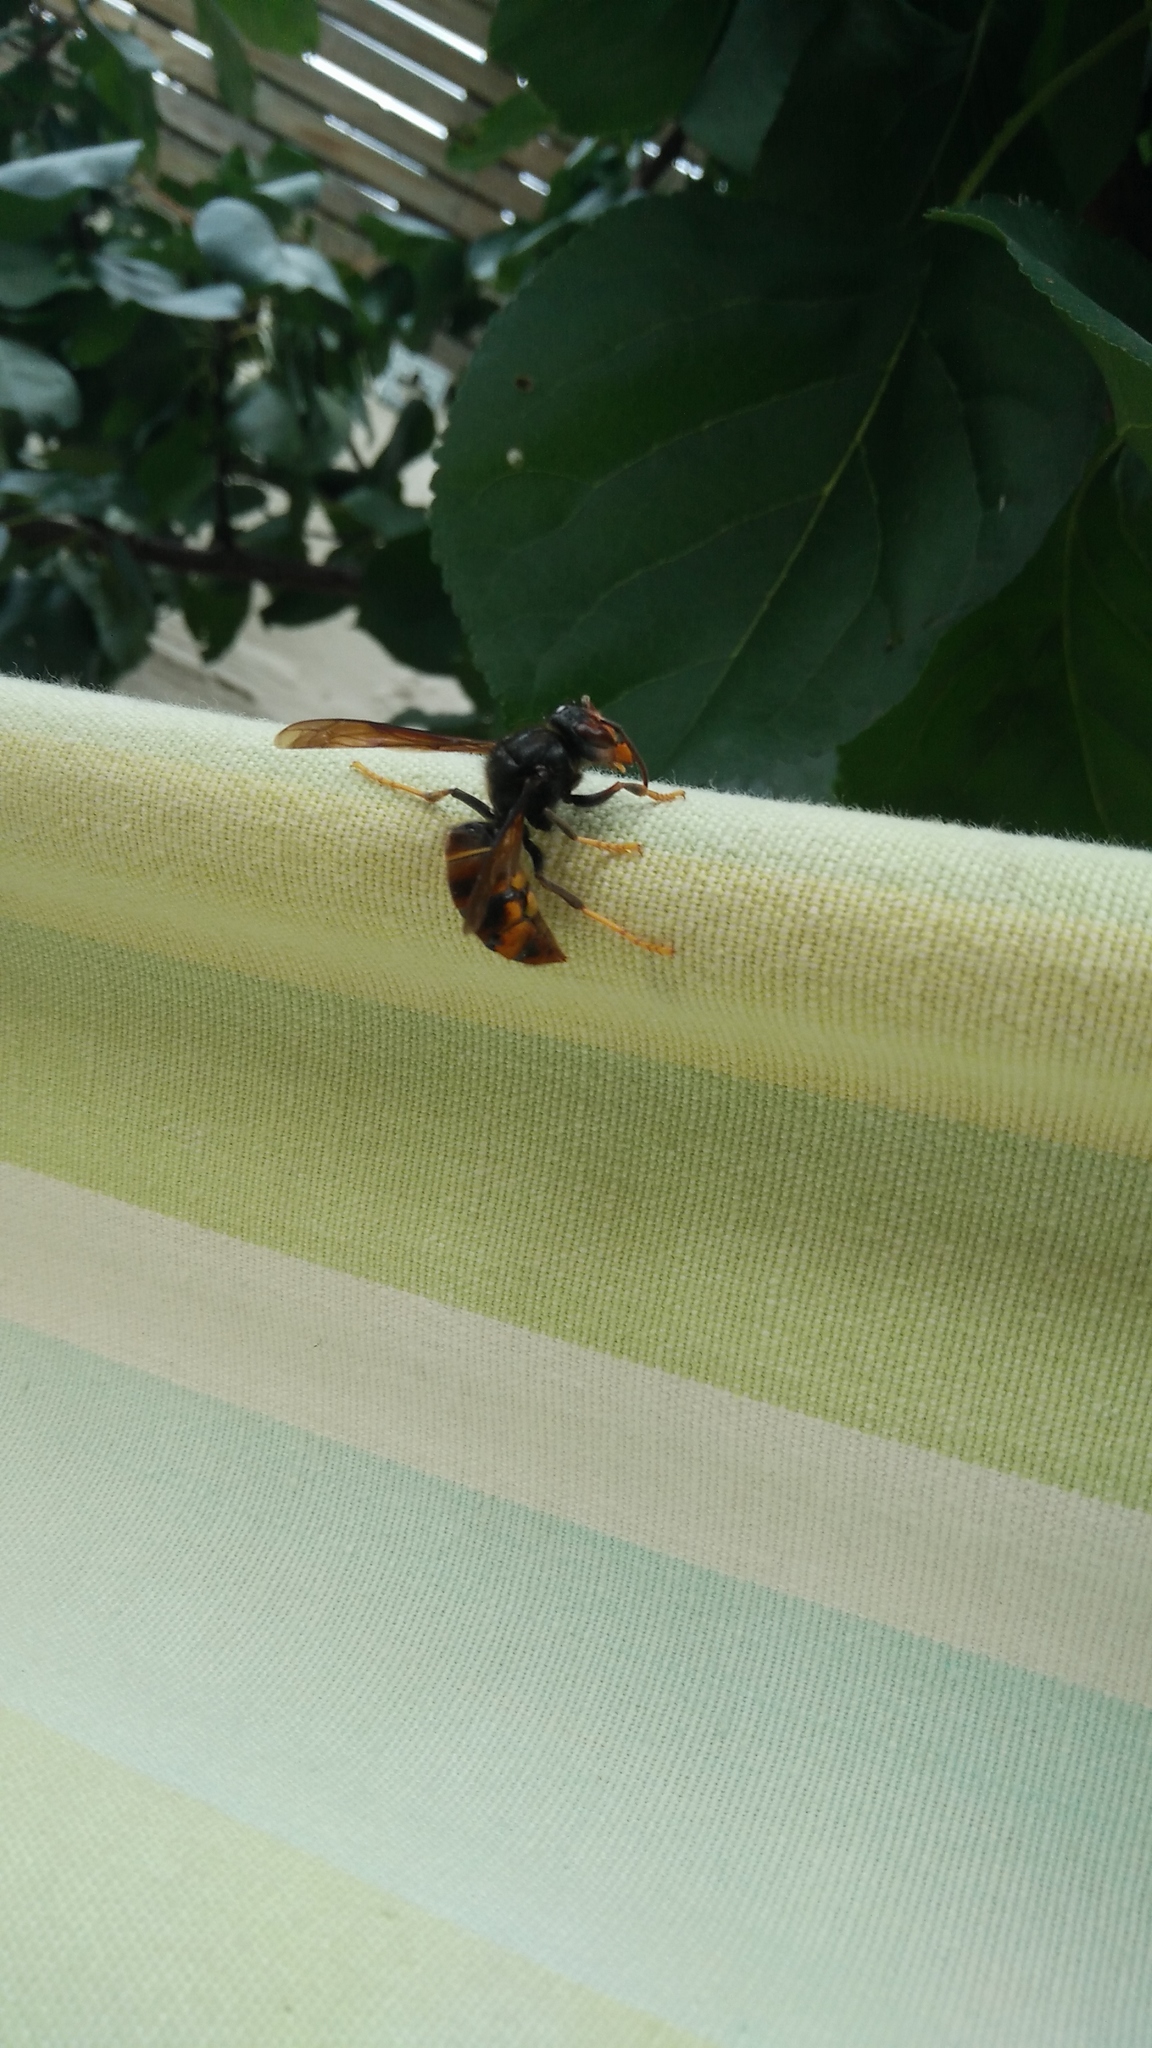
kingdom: Animalia
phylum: Arthropoda
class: Insecta
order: Hymenoptera
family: Vespidae
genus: Vespa
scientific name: Vespa velutina
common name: Asian hornet
